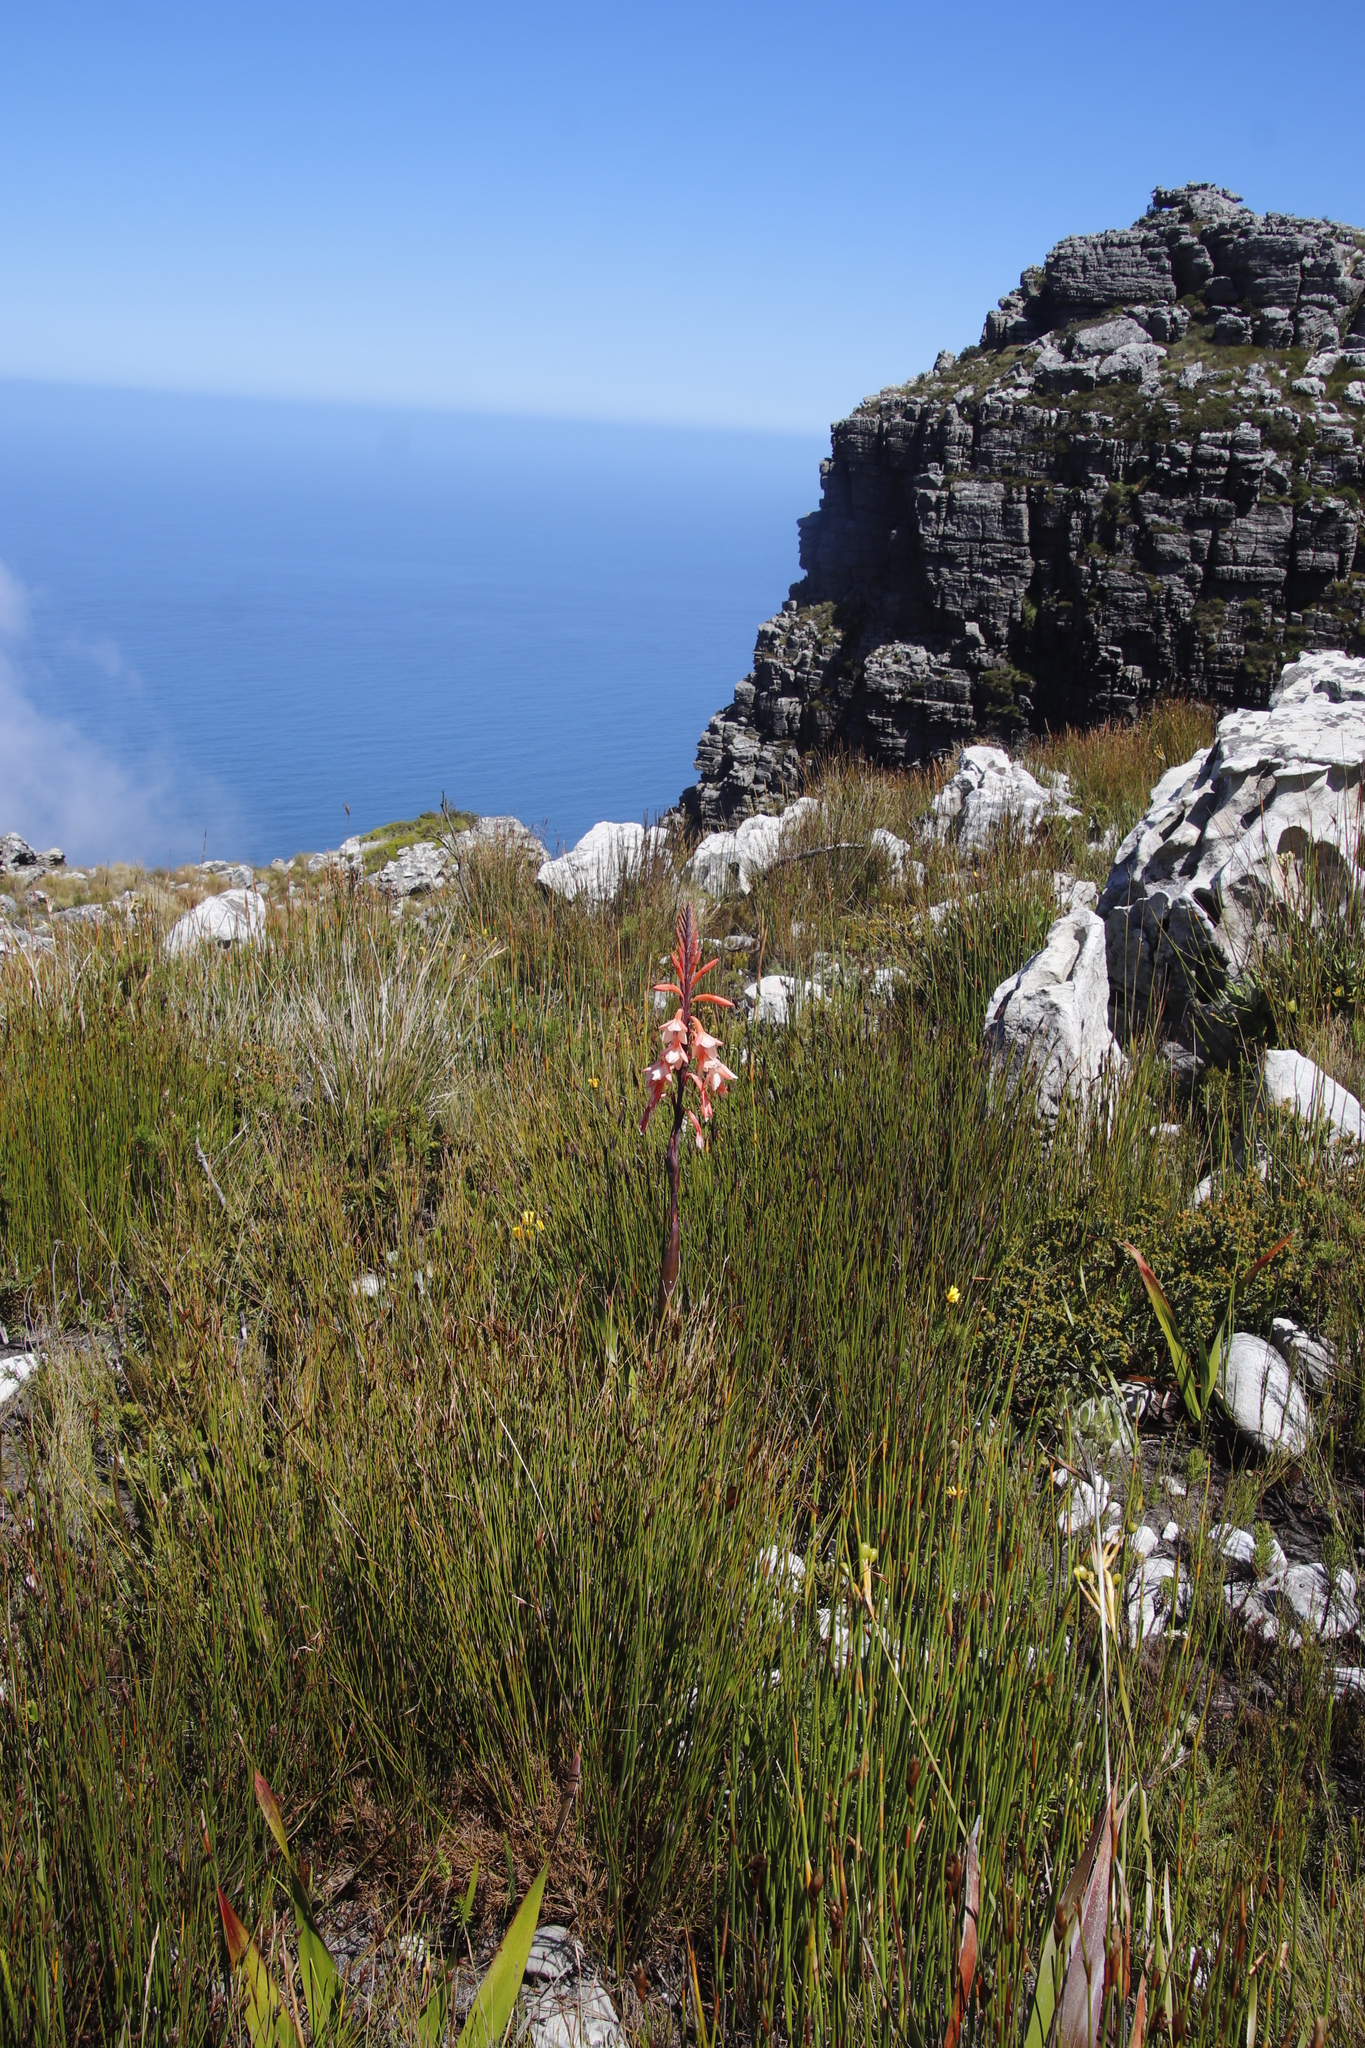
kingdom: Plantae
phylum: Tracheophyta
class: Liliopsida
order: Asparagales
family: Iridaceae
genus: Watsonia
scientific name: Watsonia tabularis
